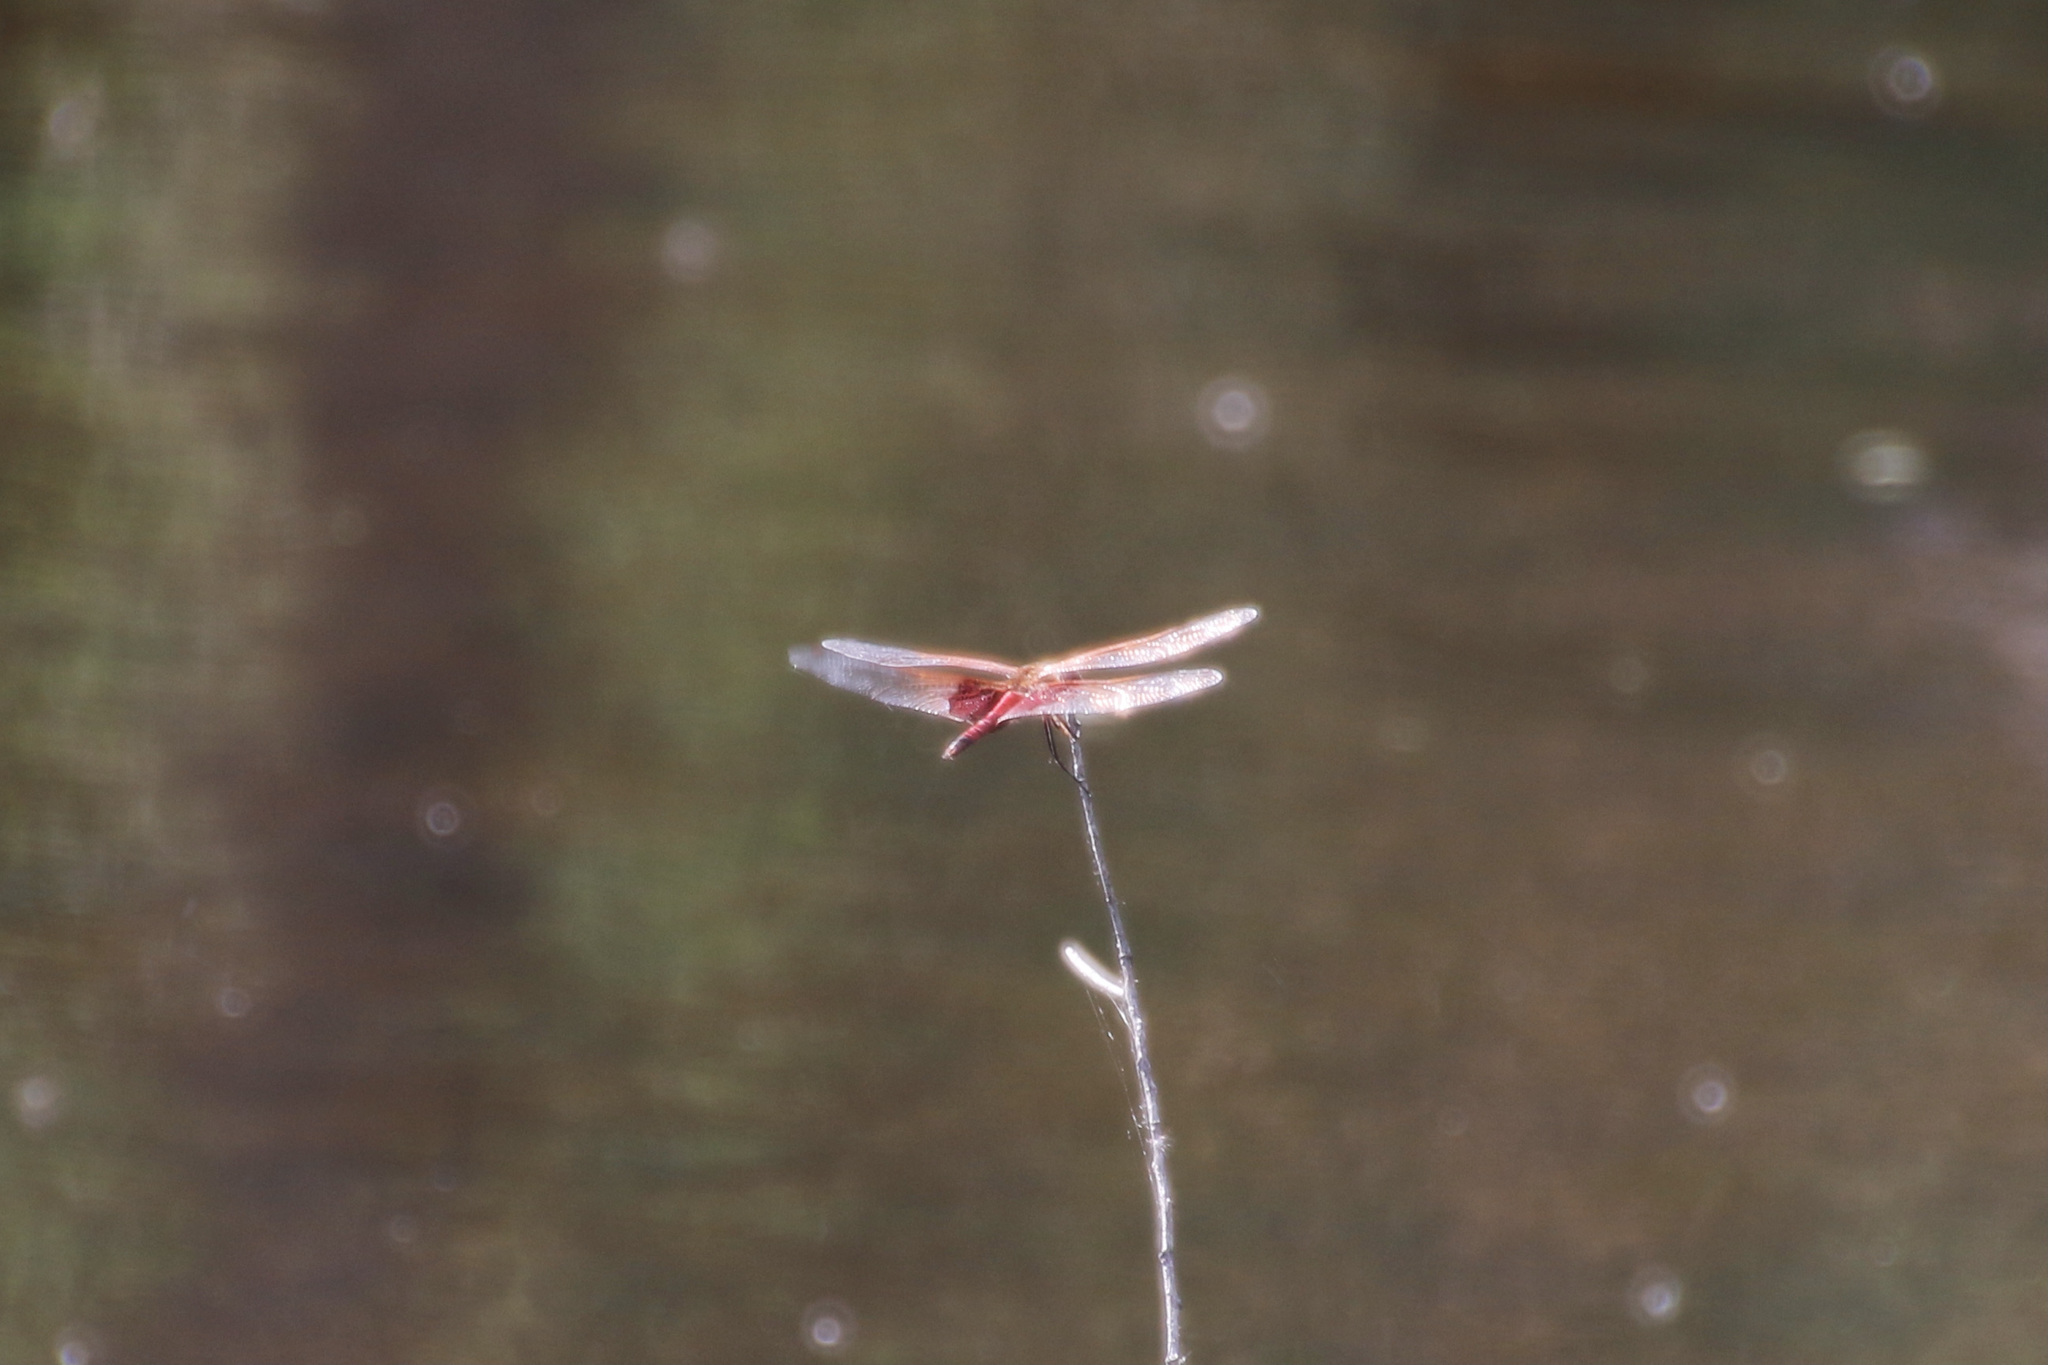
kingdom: Animalia
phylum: Arthropoda
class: Insecta
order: Odonata
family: Libellulidae
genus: Tramea
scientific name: Tramea carolina
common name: Carolina saddlebags
